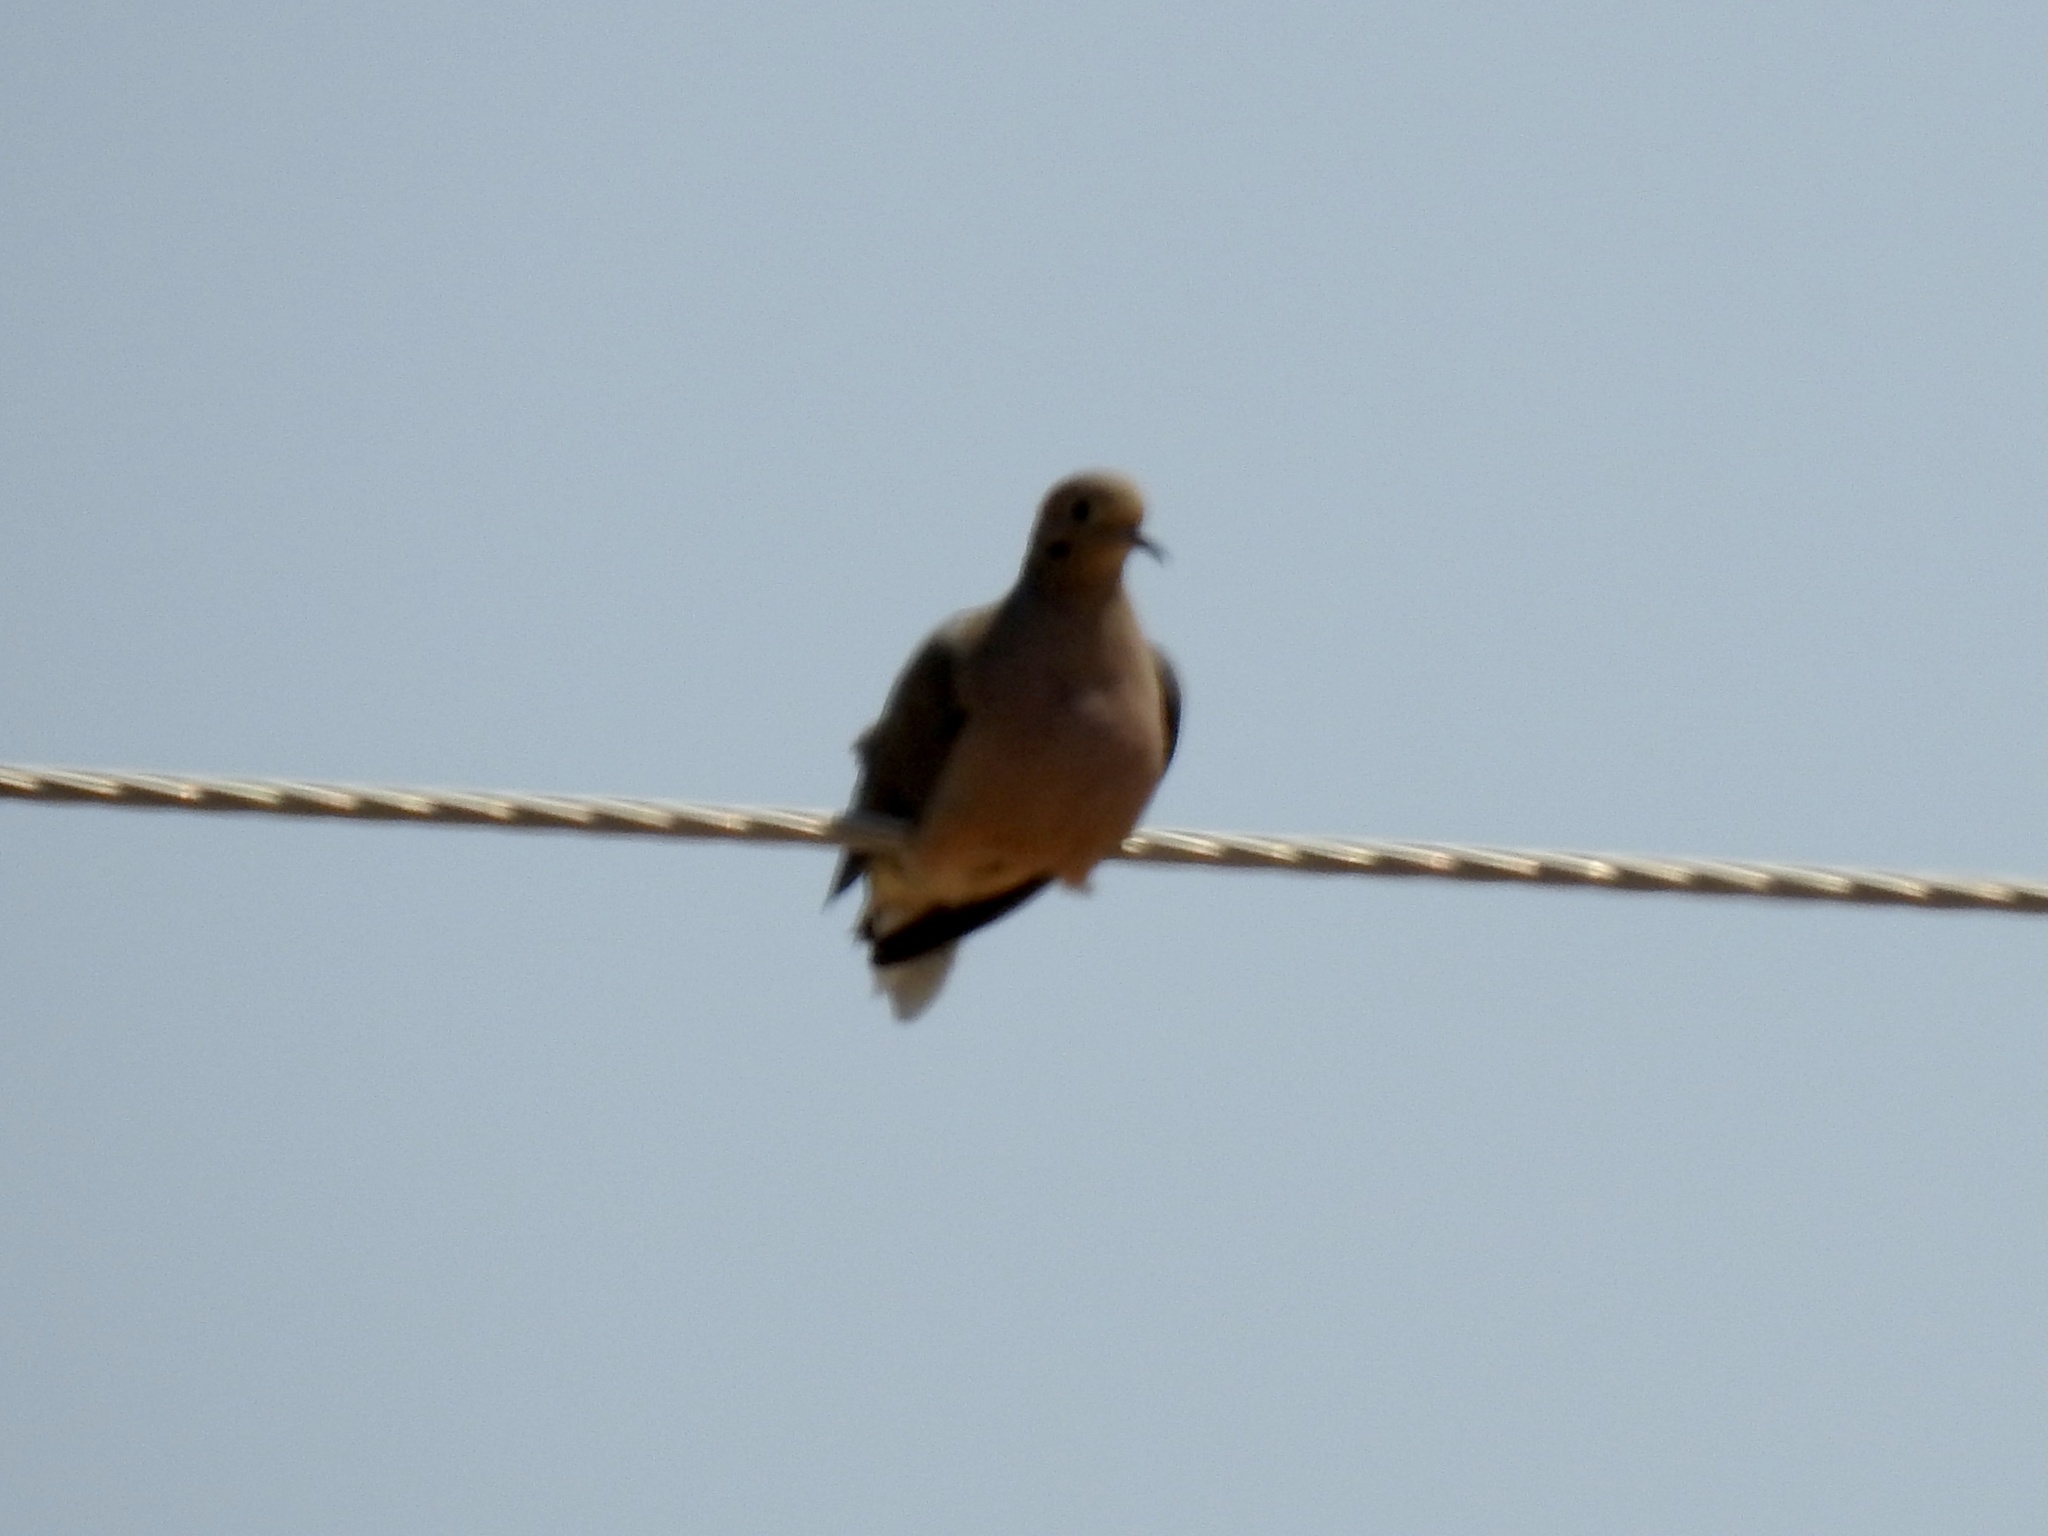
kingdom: Animalia
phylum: Chordata
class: Aves
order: Columbiformes
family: Columbidae
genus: Zenaida
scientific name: Zenaida macroura
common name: Mourning dove
